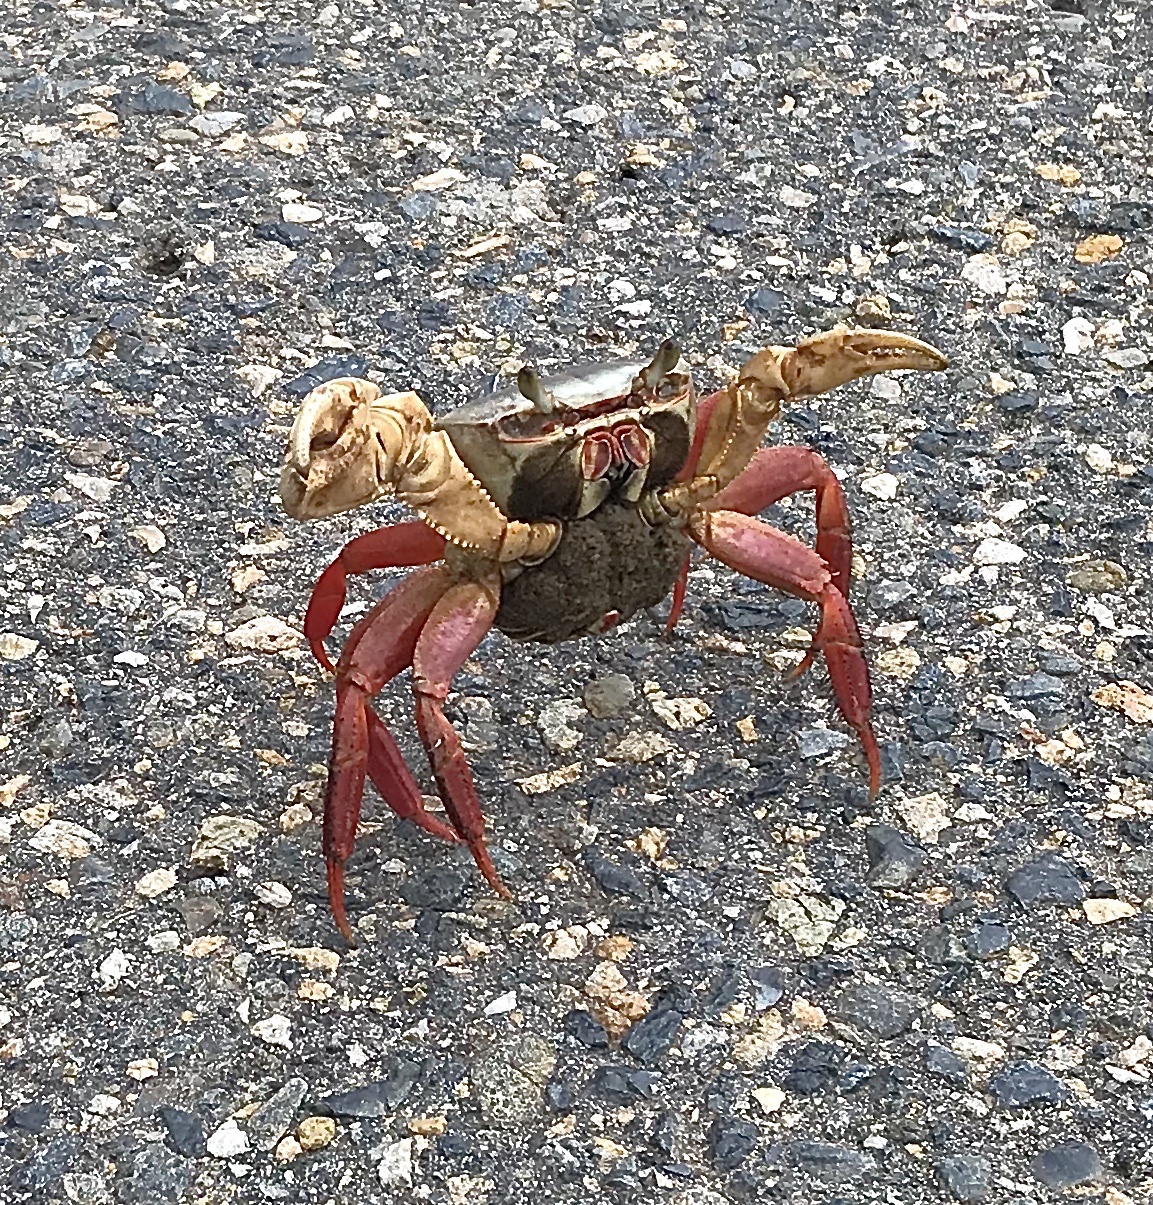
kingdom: Animalia
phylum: Arthropoda
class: Malacostraca
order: Decapoda
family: Gecarcinidae
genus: Cardisoma
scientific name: Cardisoma crassum
